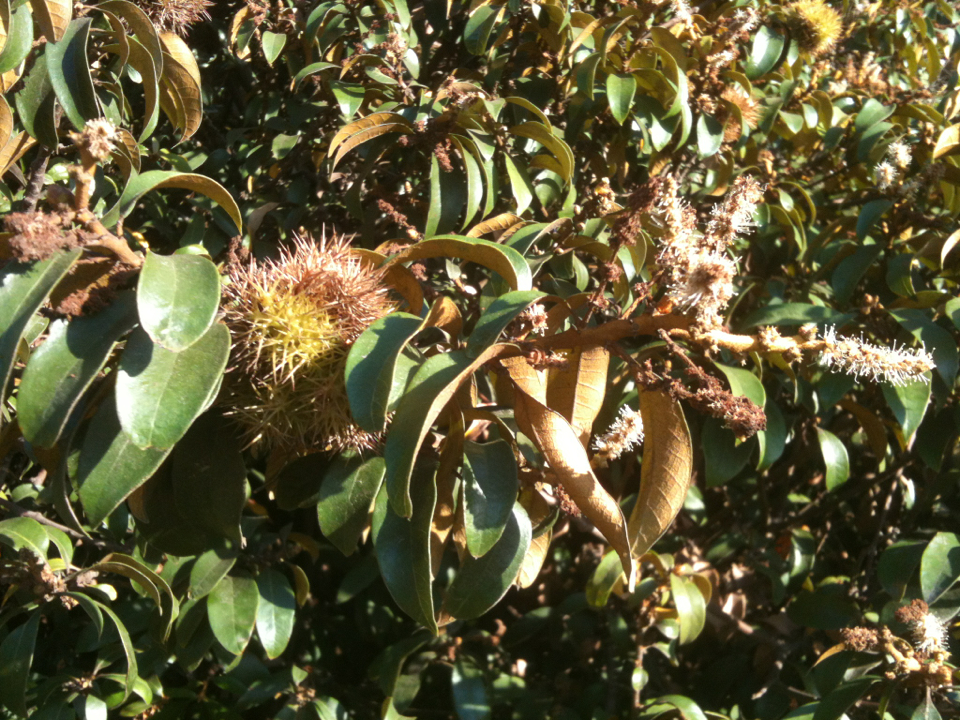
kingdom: Plantae
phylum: Tracheophyta
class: Magnoliopsida
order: Fagales
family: Fagaceae
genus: Chrysolepis
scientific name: Chrysolepis chrysophylla
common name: Giant chinquapin
